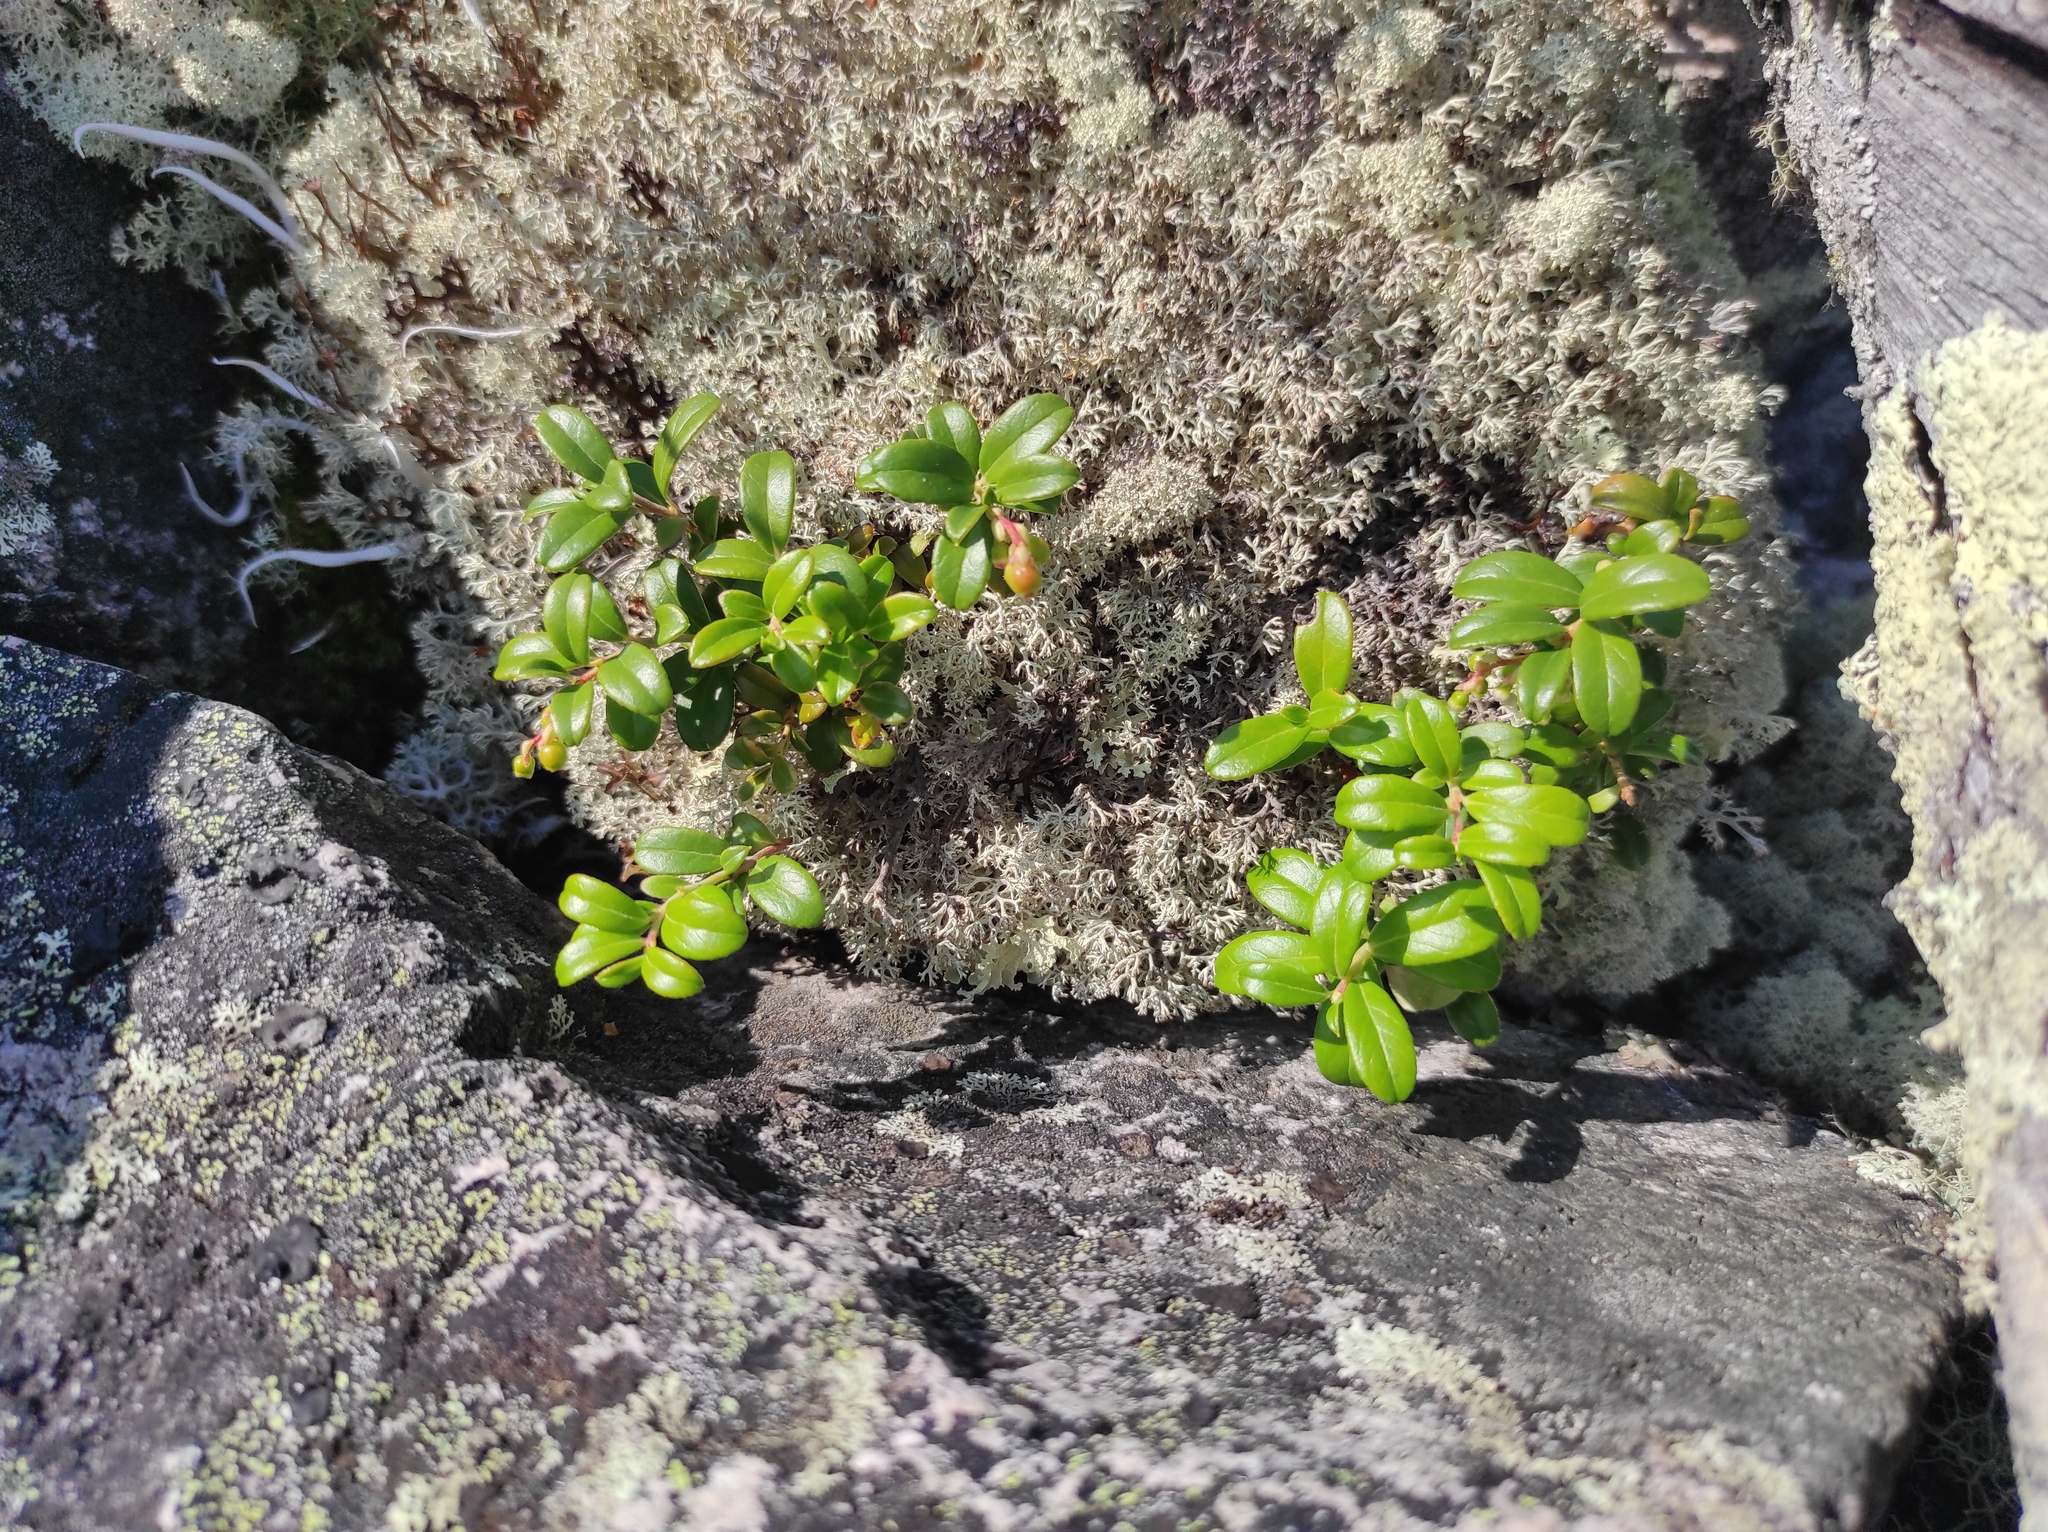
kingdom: Plantae
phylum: Tracheophyta
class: Magnoliopsida
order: Ericales
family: Ericaceae
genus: Vaccinium
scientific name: Vaccinium vitis-idaea
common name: Cowberry
